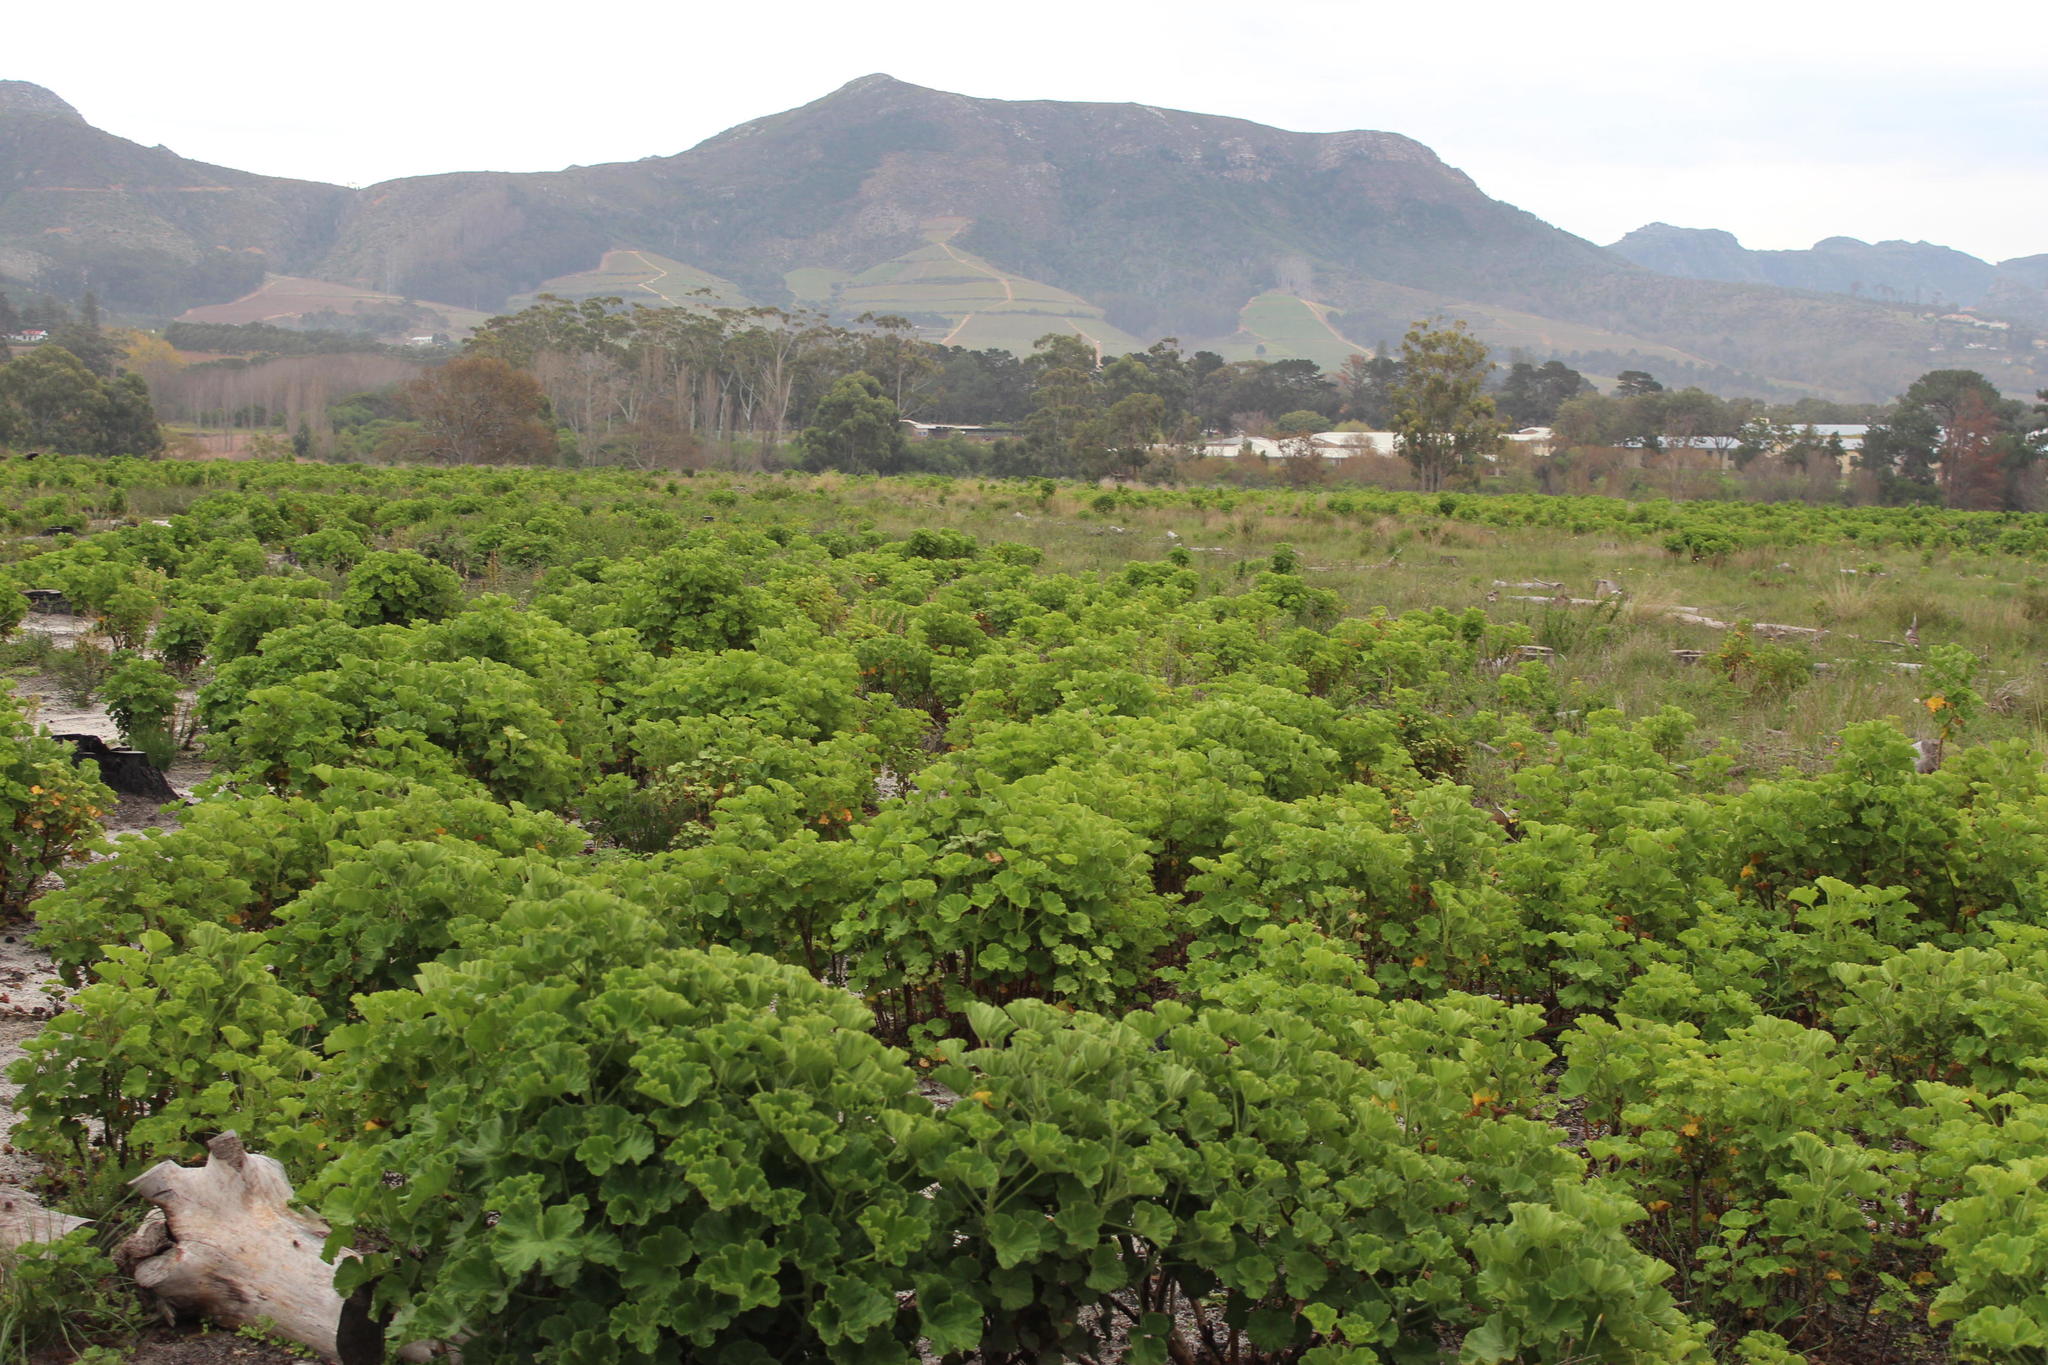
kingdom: Plantae
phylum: Tracheophyta
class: Magnoliopsida
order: Geraniales
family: Geraniaceae
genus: Pelargonium
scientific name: Pelargonium cucullatum
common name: Tree pelargonium
